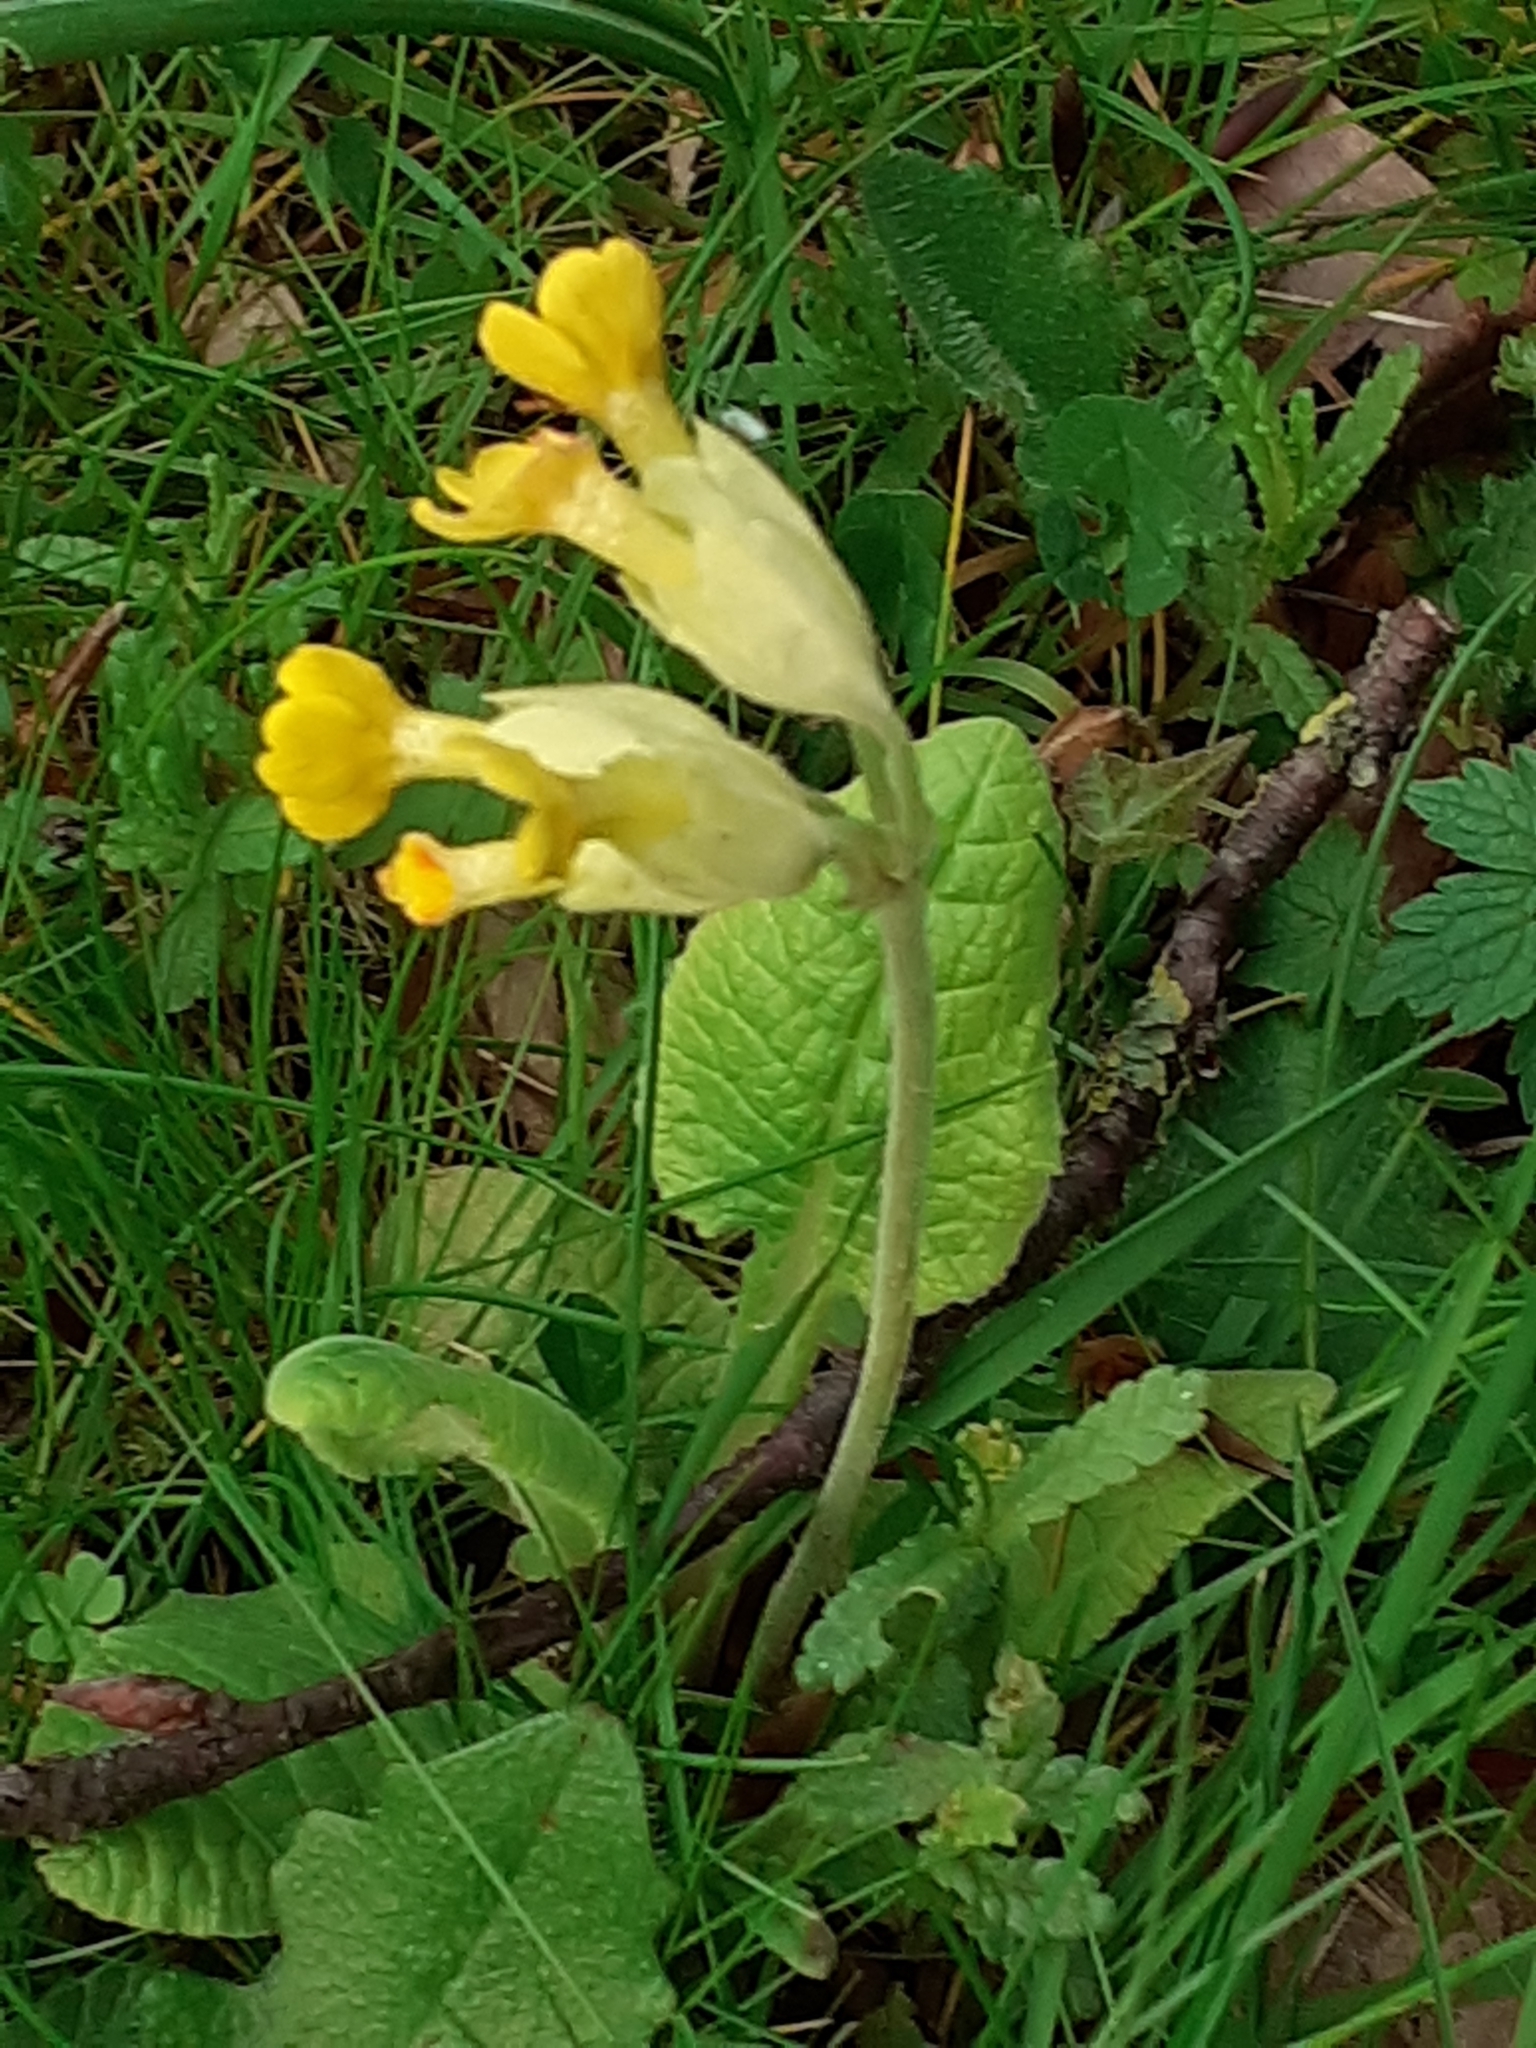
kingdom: Plantae
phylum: Tracheophyta
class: Magnoliopsida
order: Ericales
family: Primulaceae
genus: Primula
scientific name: Primula veris
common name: Cowslip
